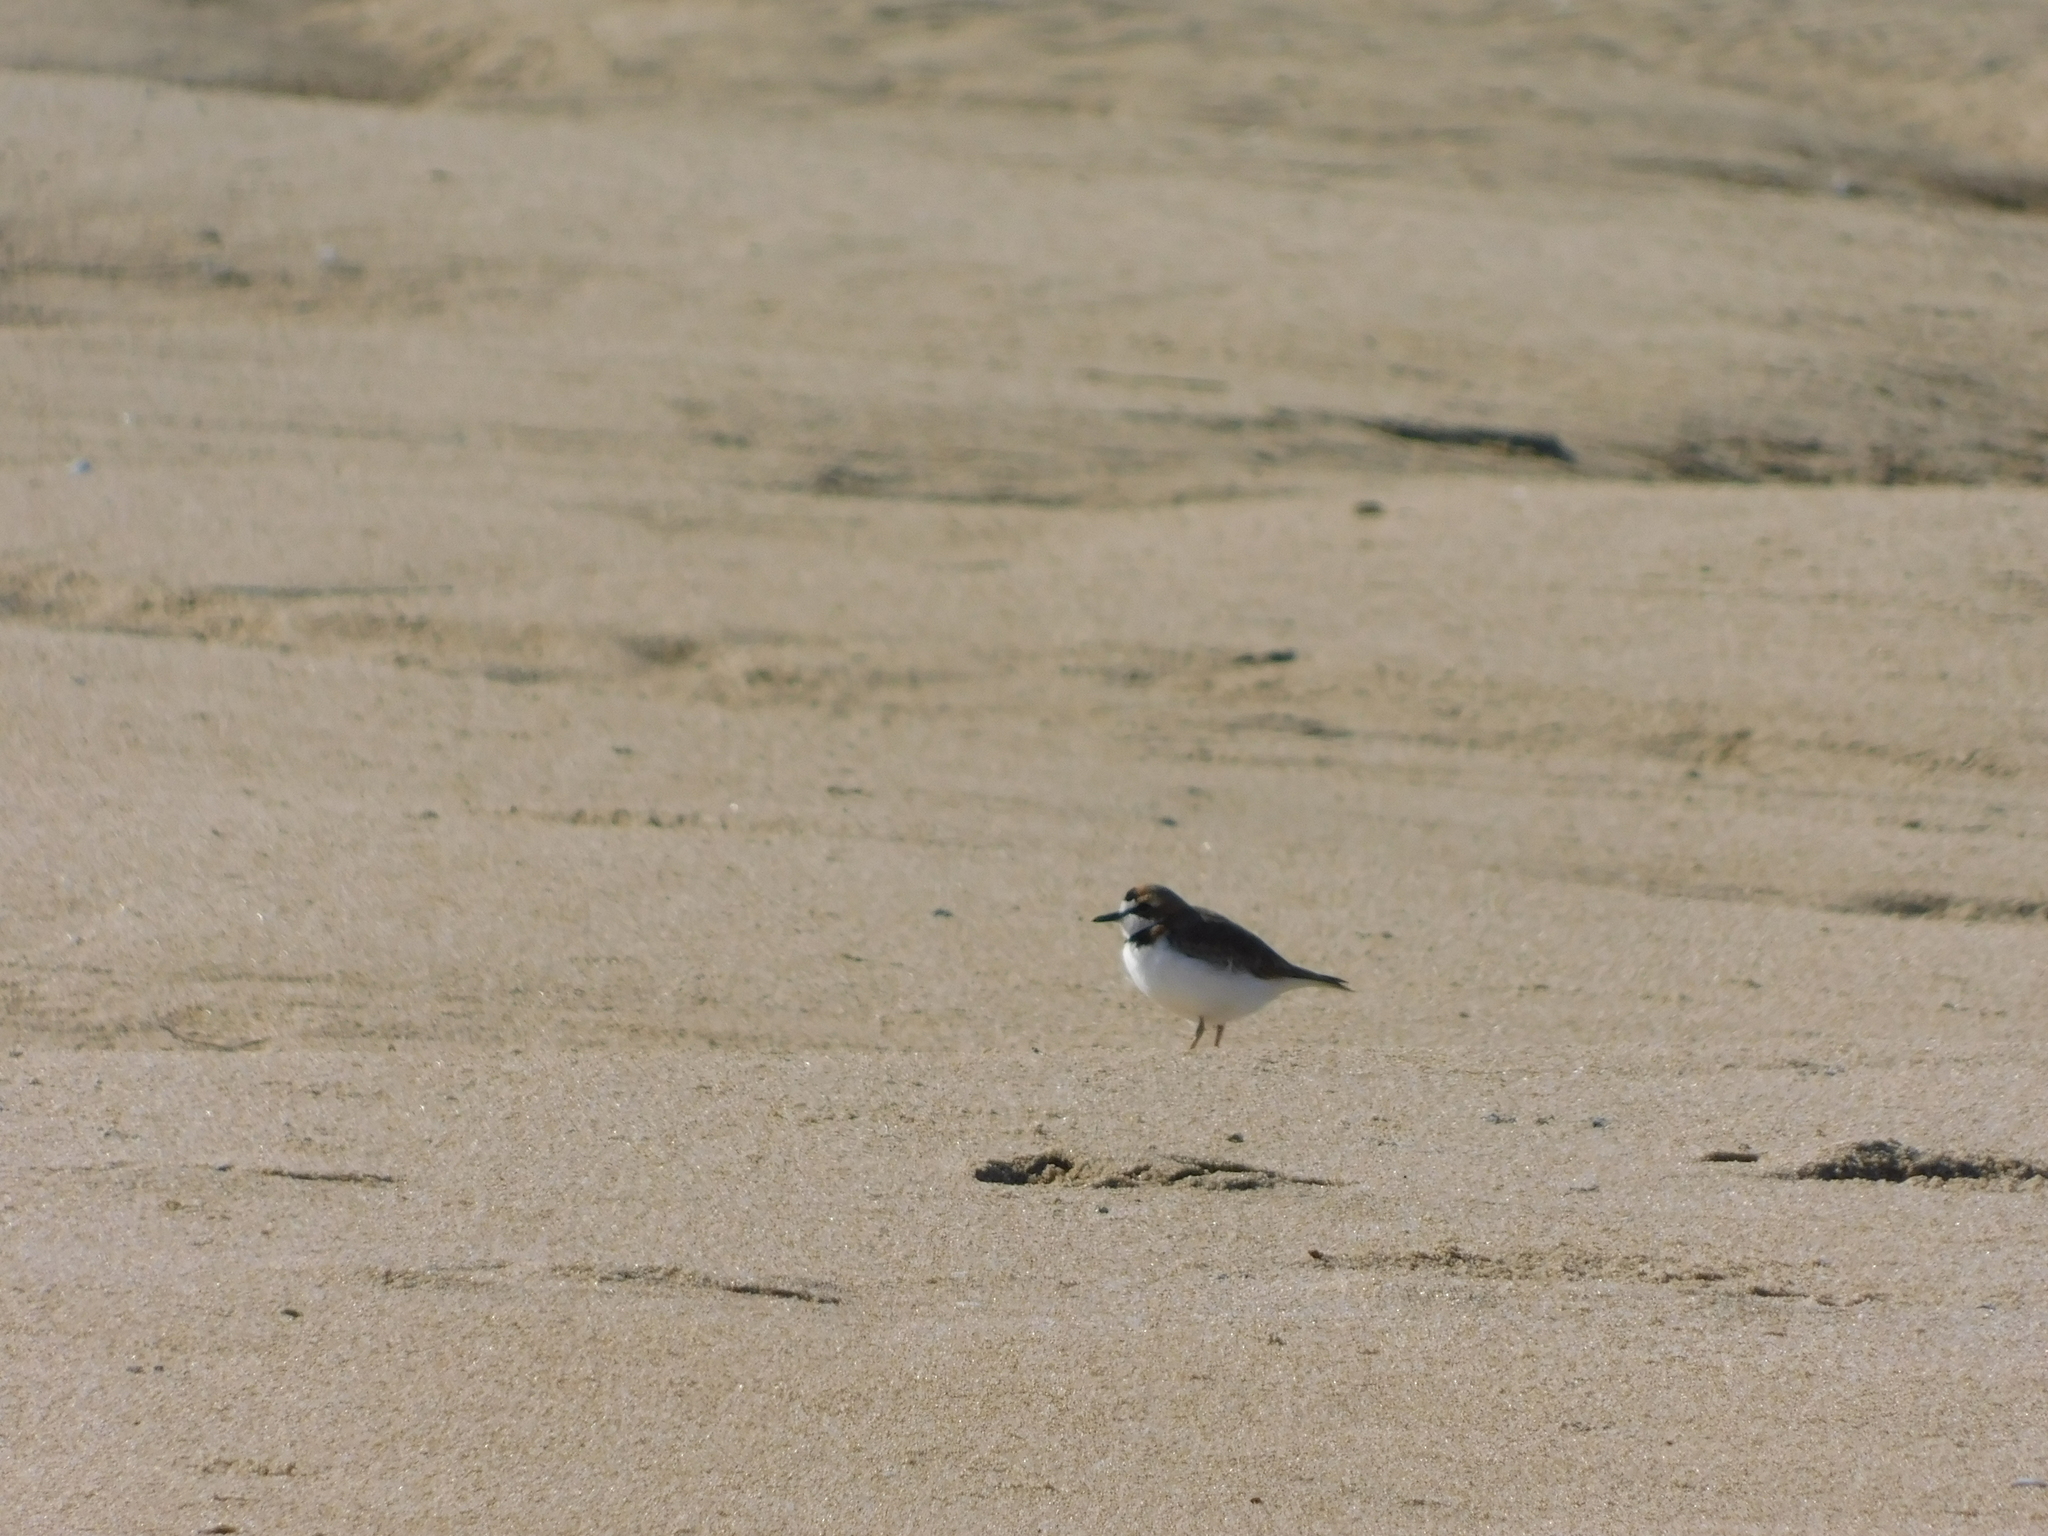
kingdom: Animalia
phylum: Chordata
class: Aves
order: Charadriiformes
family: Charadriidae
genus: Anarhynchus
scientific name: Anarhynchus
